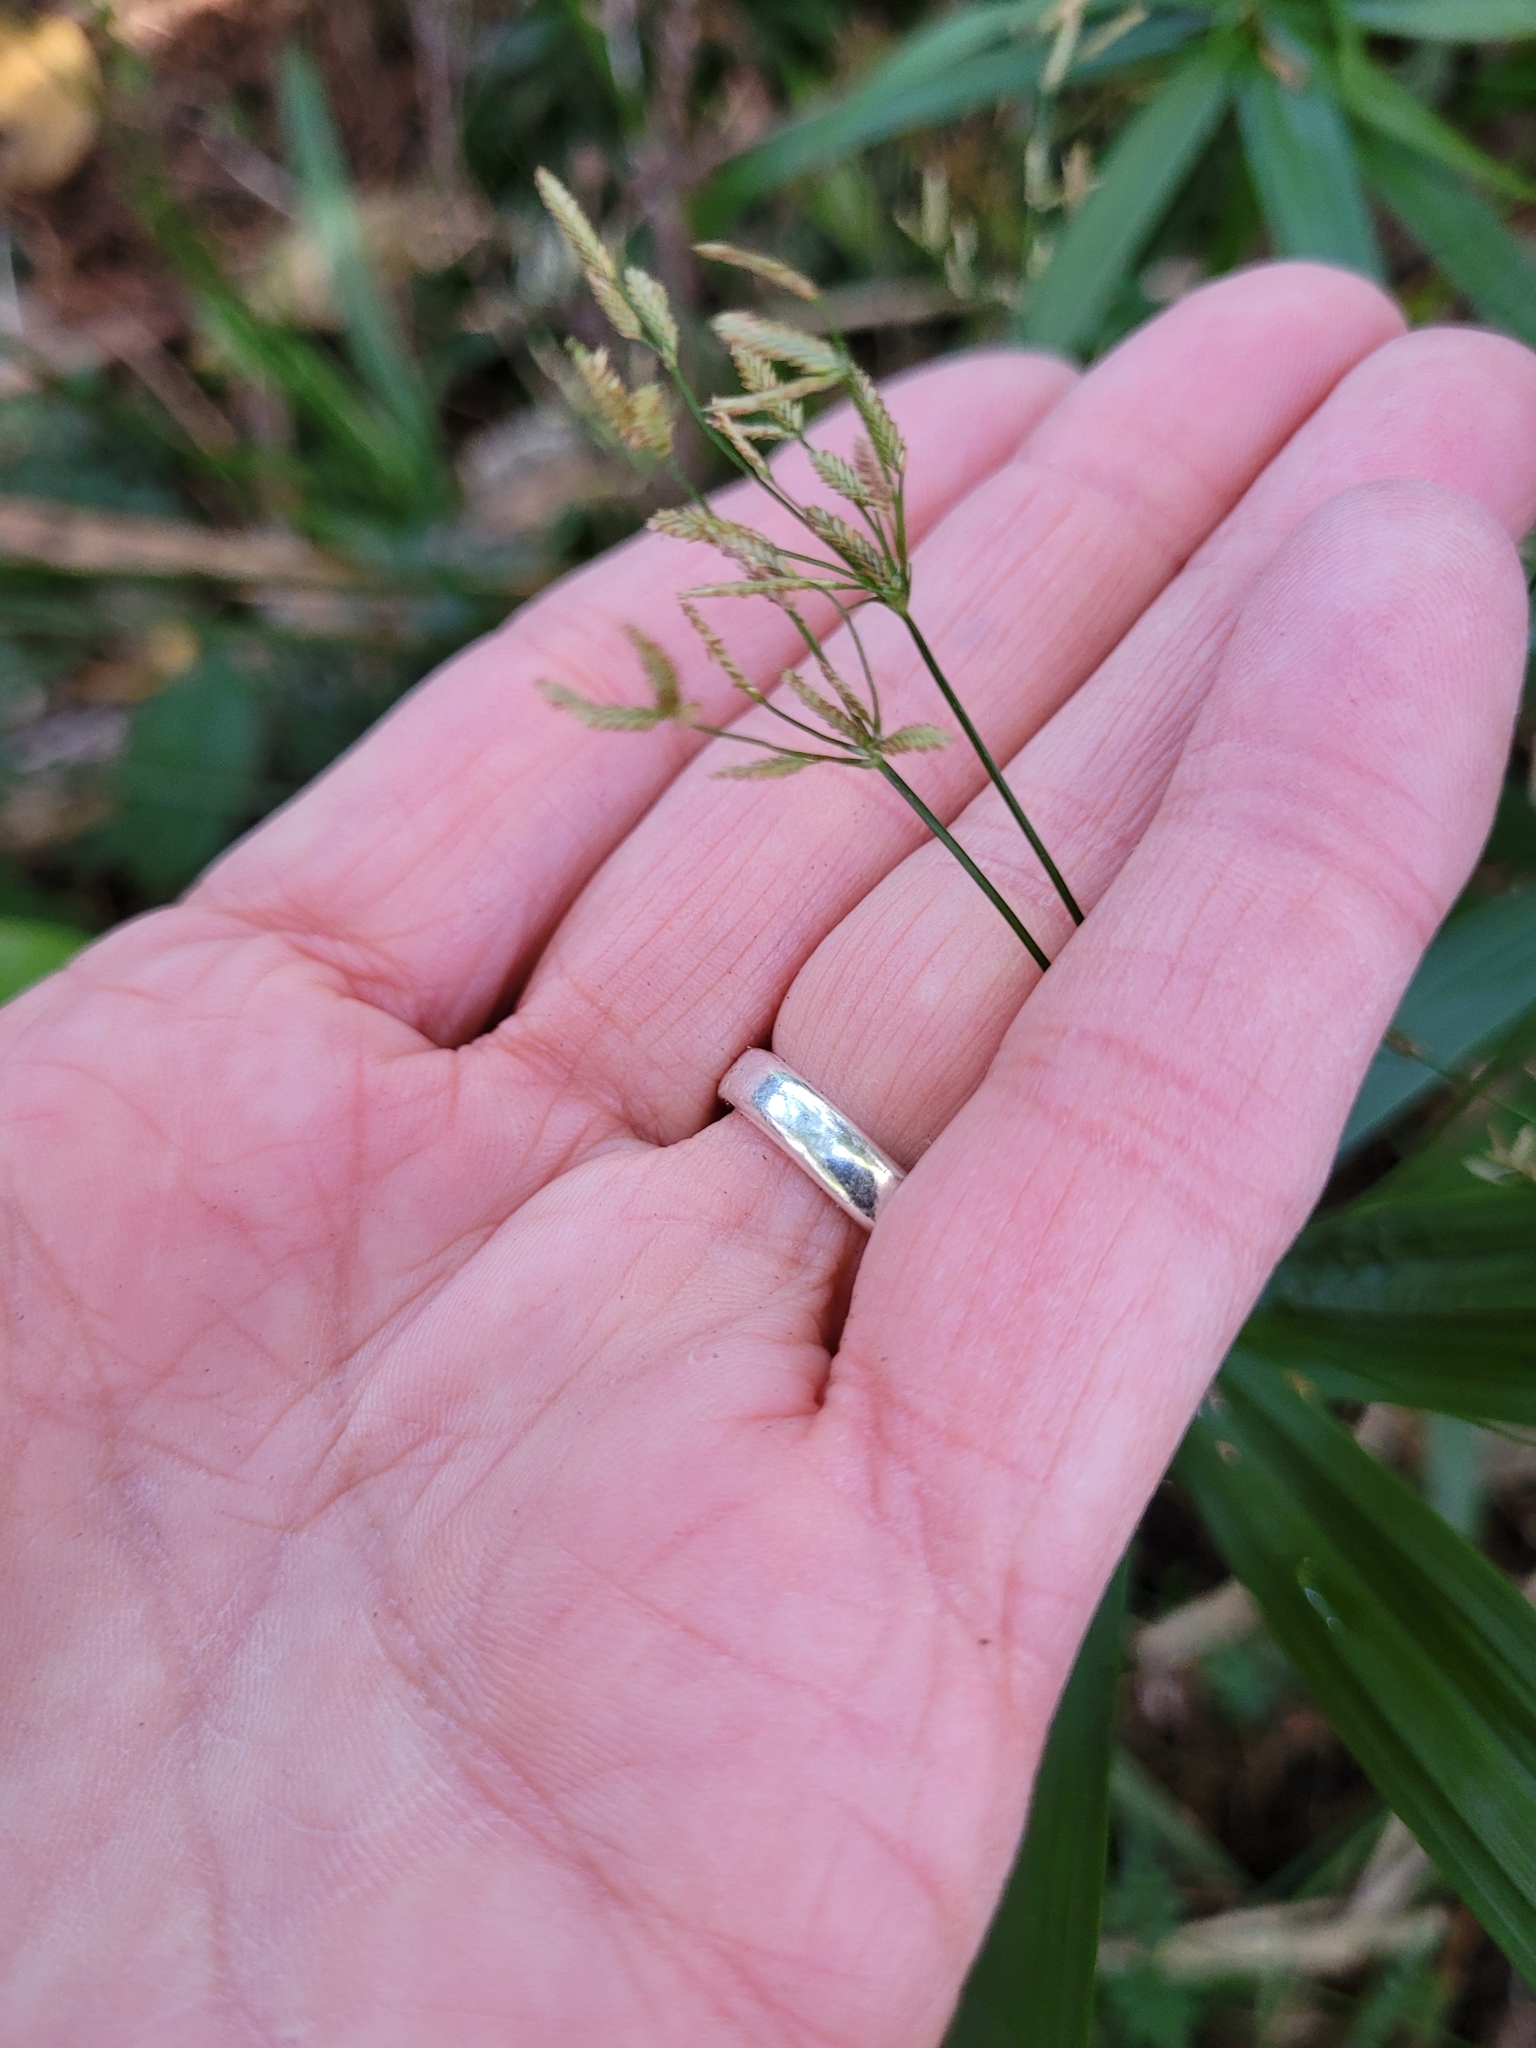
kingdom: Plantae
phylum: Tracheophyta
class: Liliopsida
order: Poales
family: Cyperaceae
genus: Cyperus
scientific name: Cyperus albostriatus
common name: Dwarf umbrella-grass
